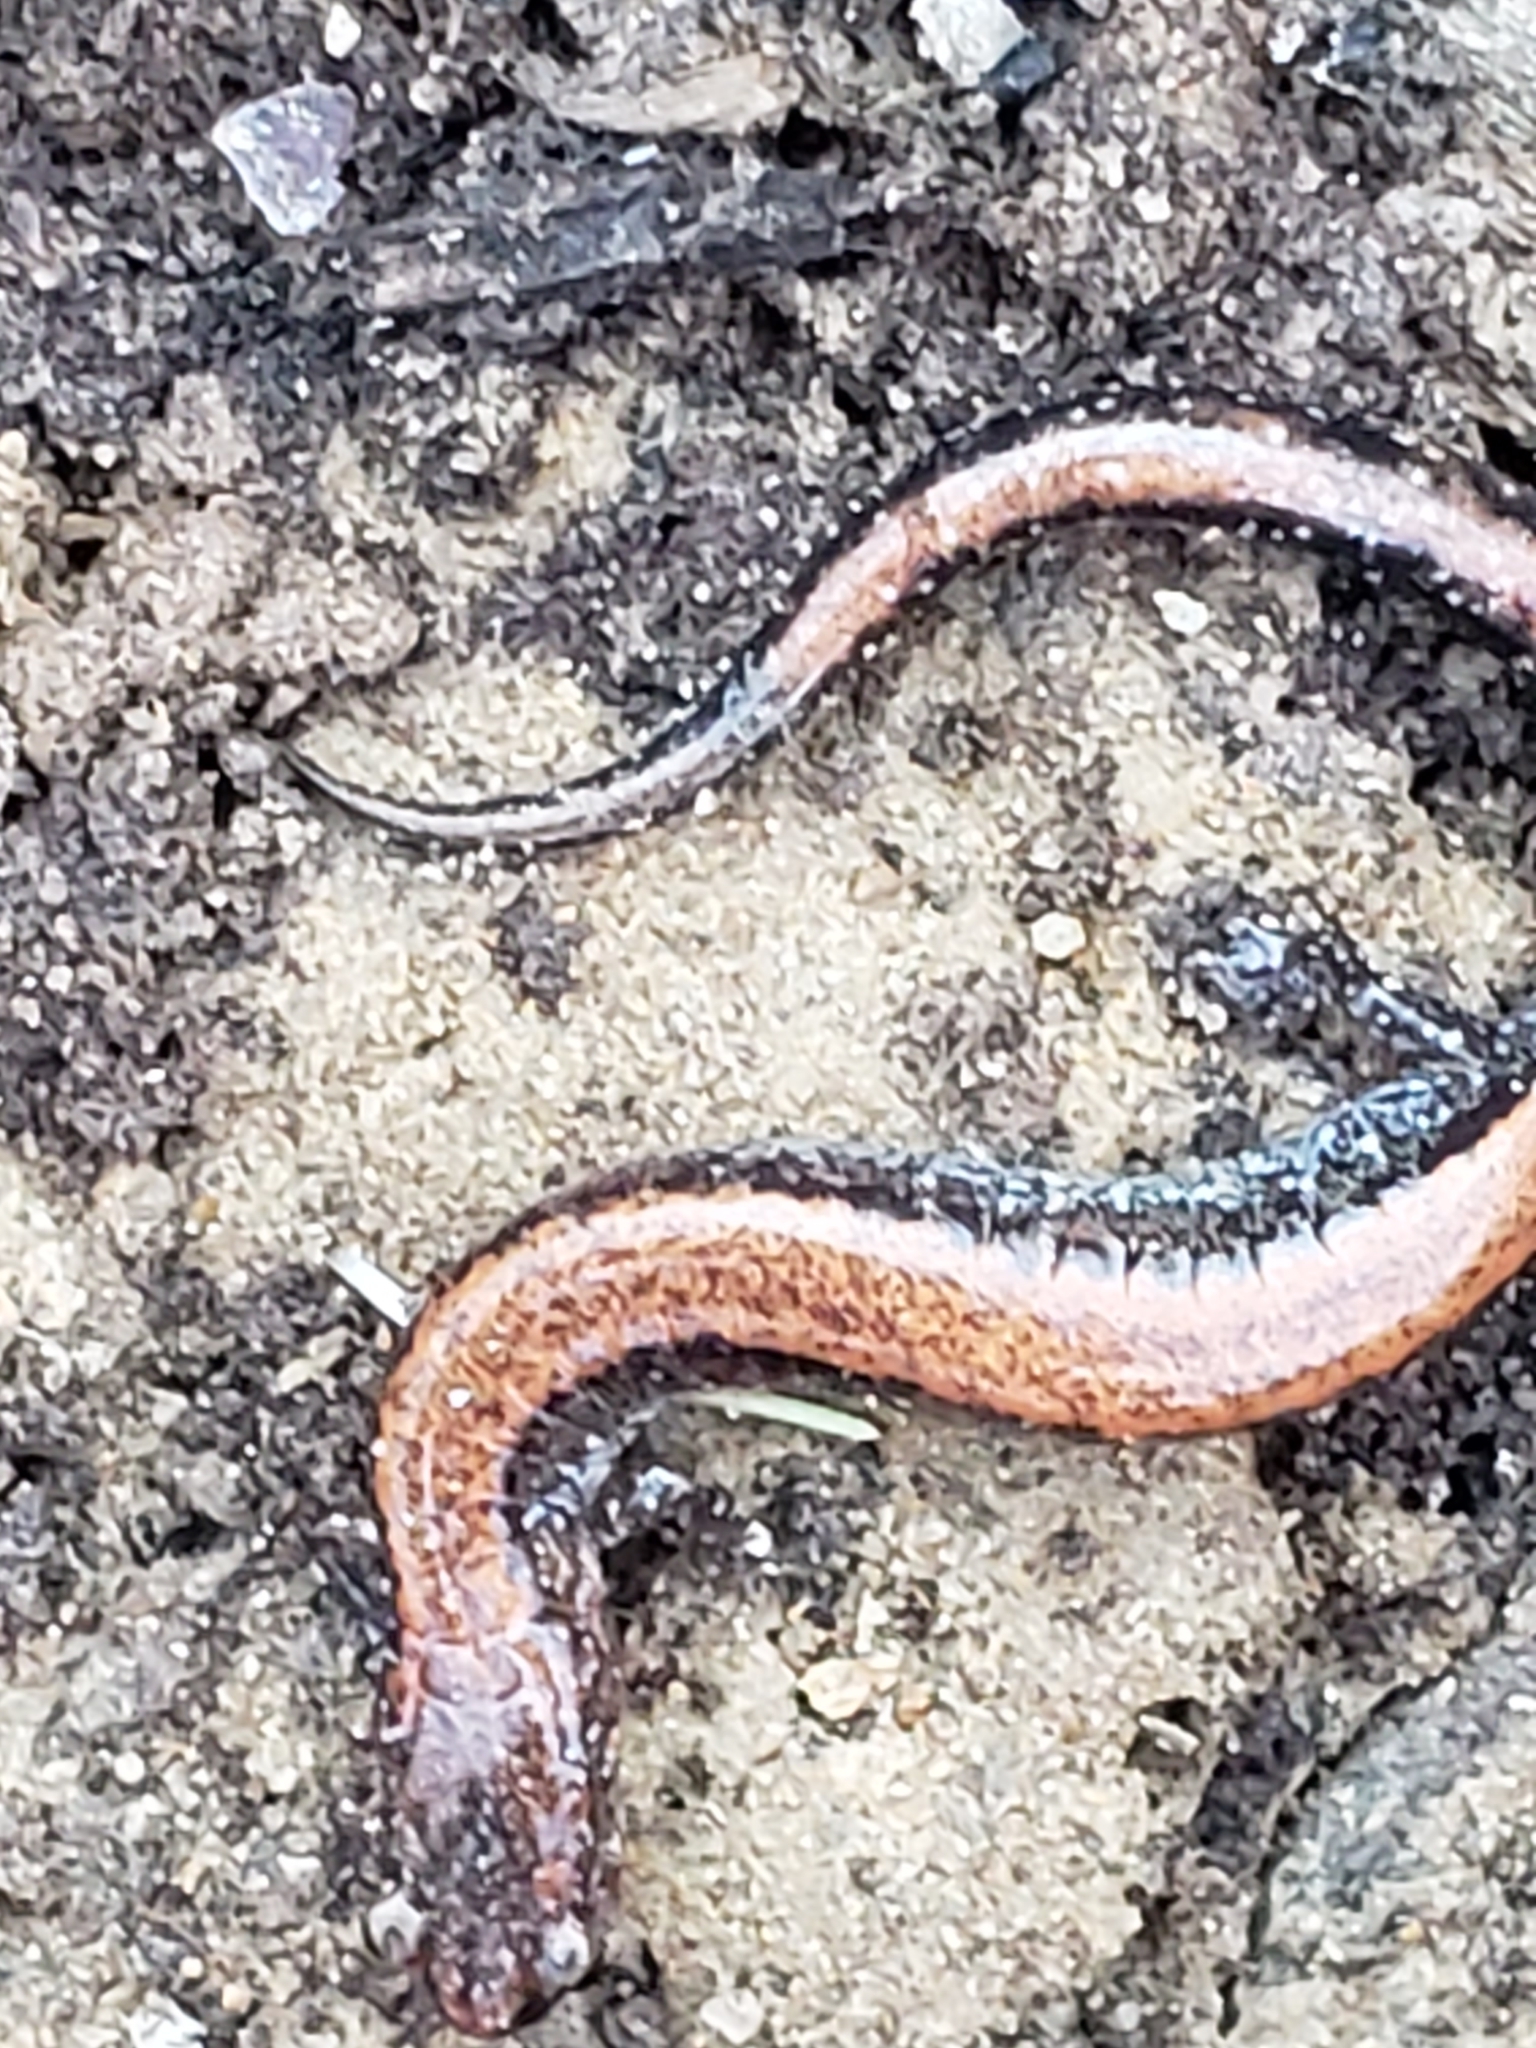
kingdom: Animalia
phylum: Chordata
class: Amphibia
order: Caudata
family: Plethodontidae
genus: Plethodon
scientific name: Plethodon cinereus
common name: Redback salamander
